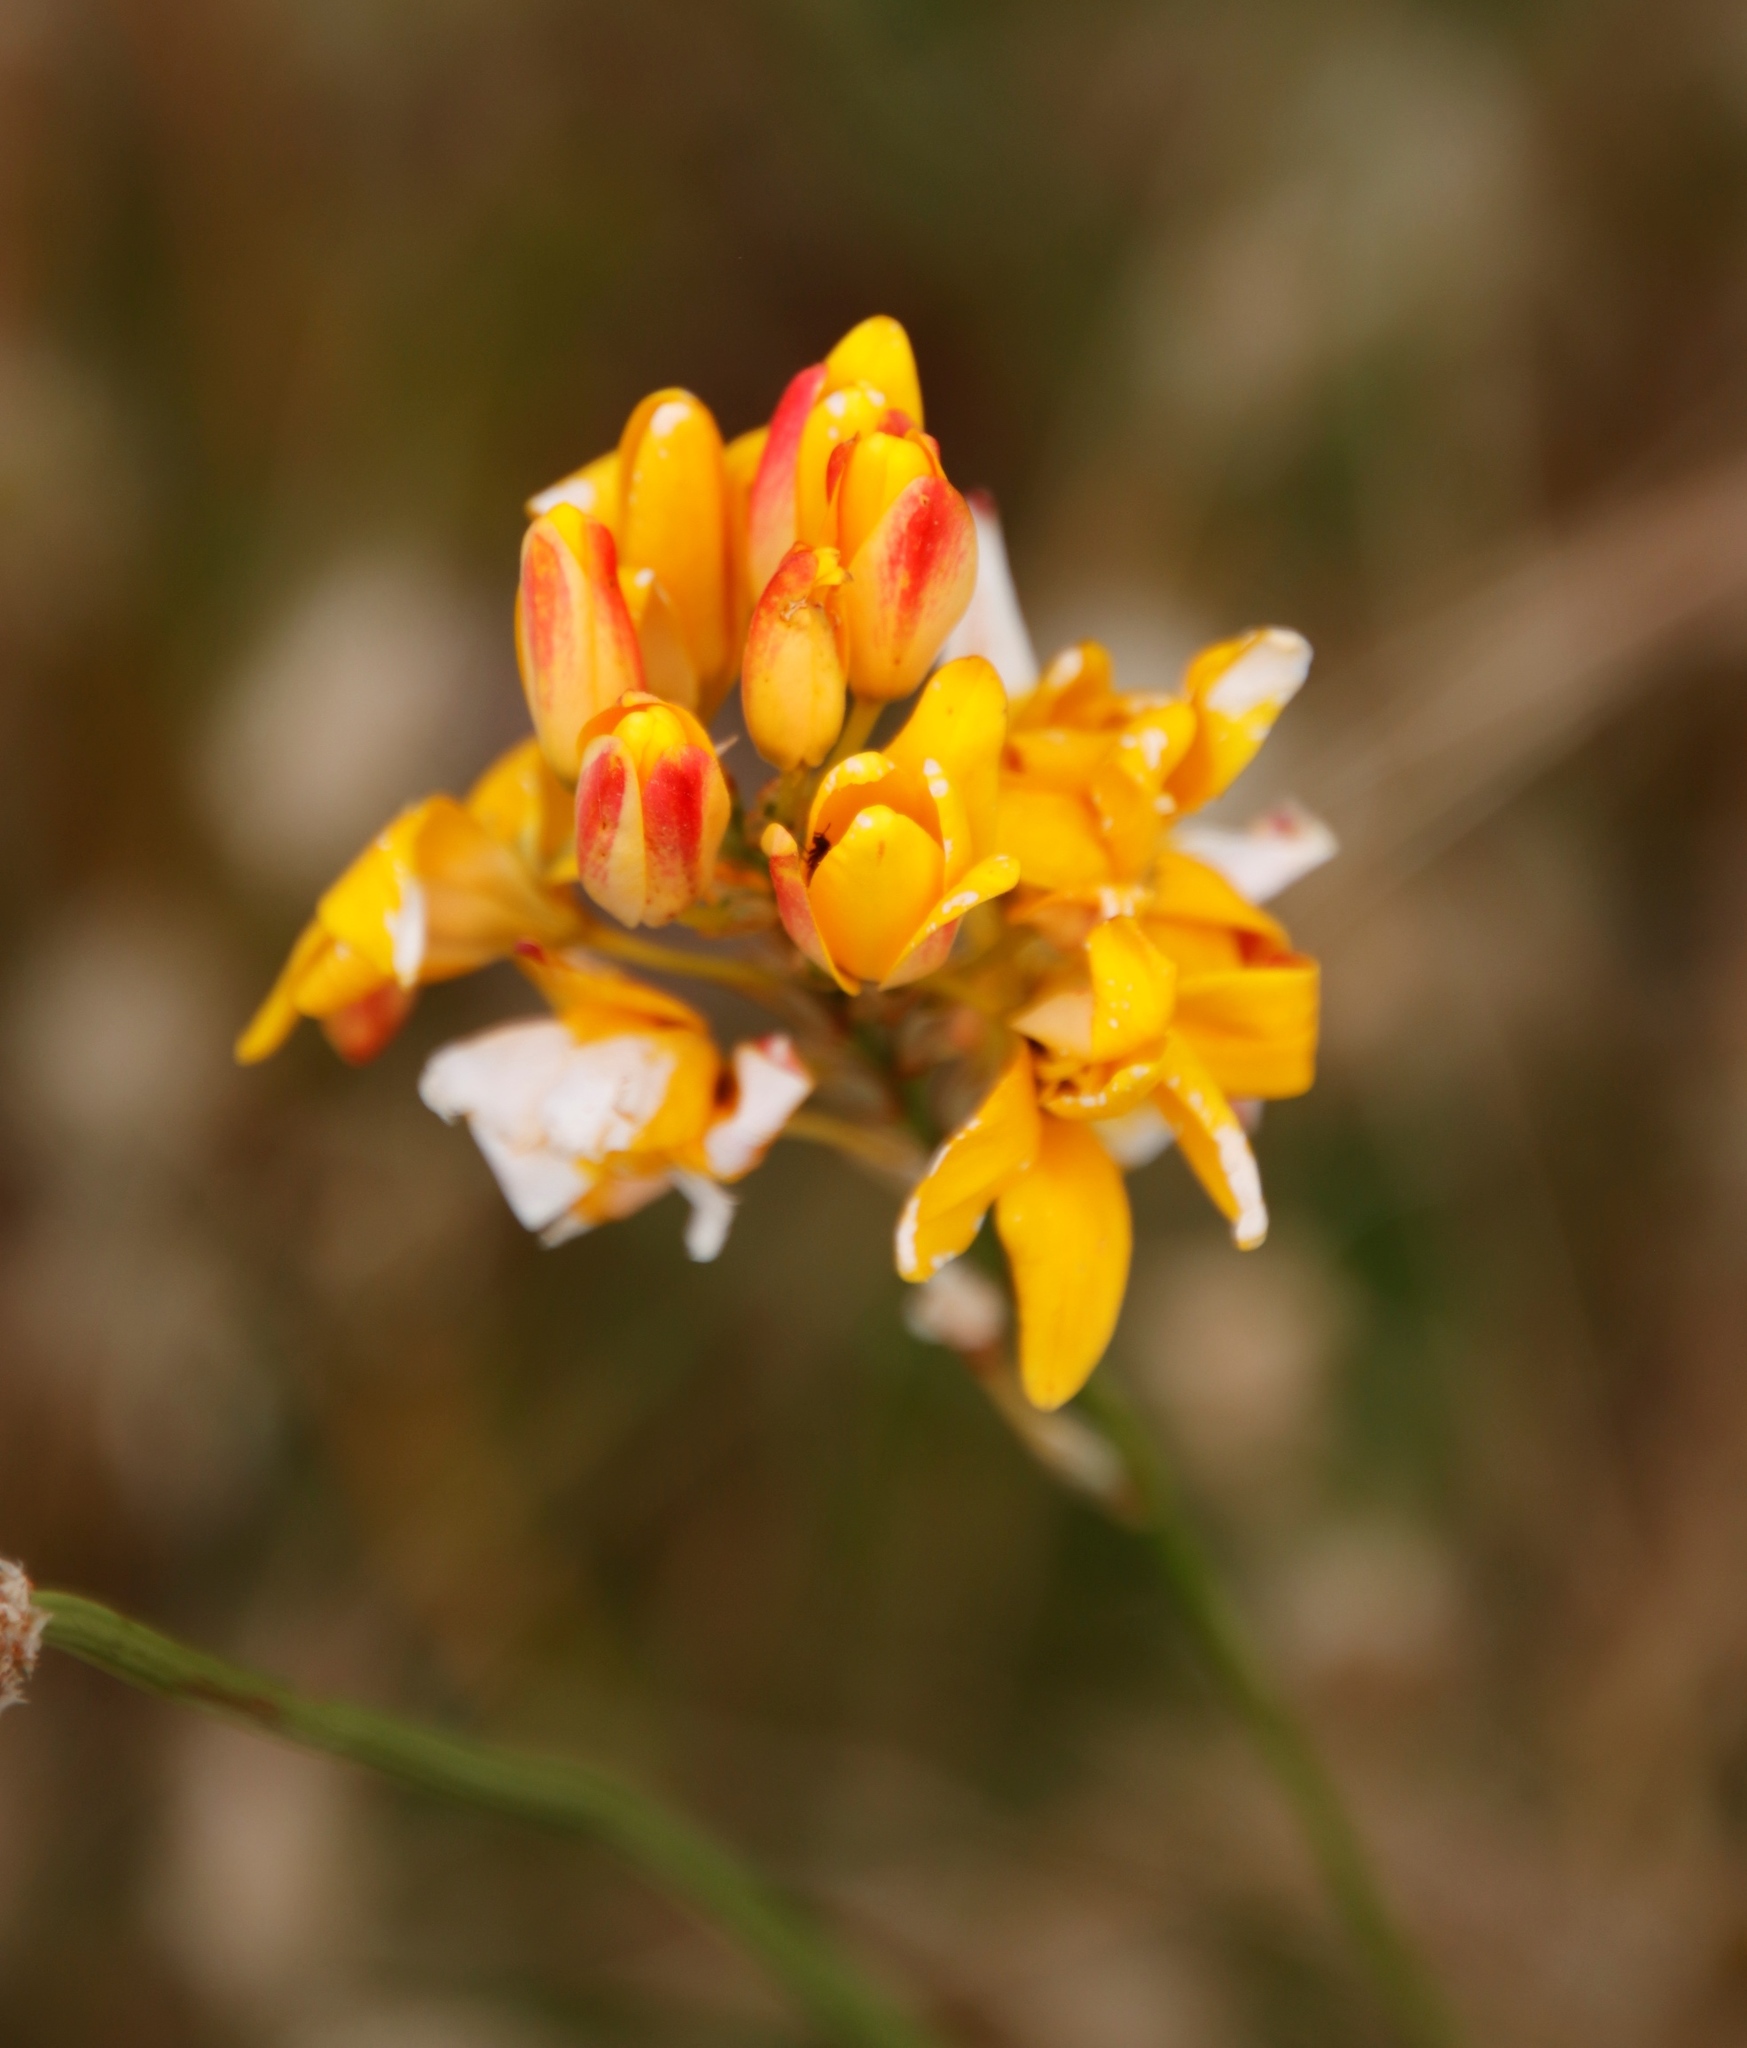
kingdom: Plantae
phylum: Tracheophyta
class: Liliopsida
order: Asparagales
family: Iridaceae
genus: Ixia
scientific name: Ixia dubia
